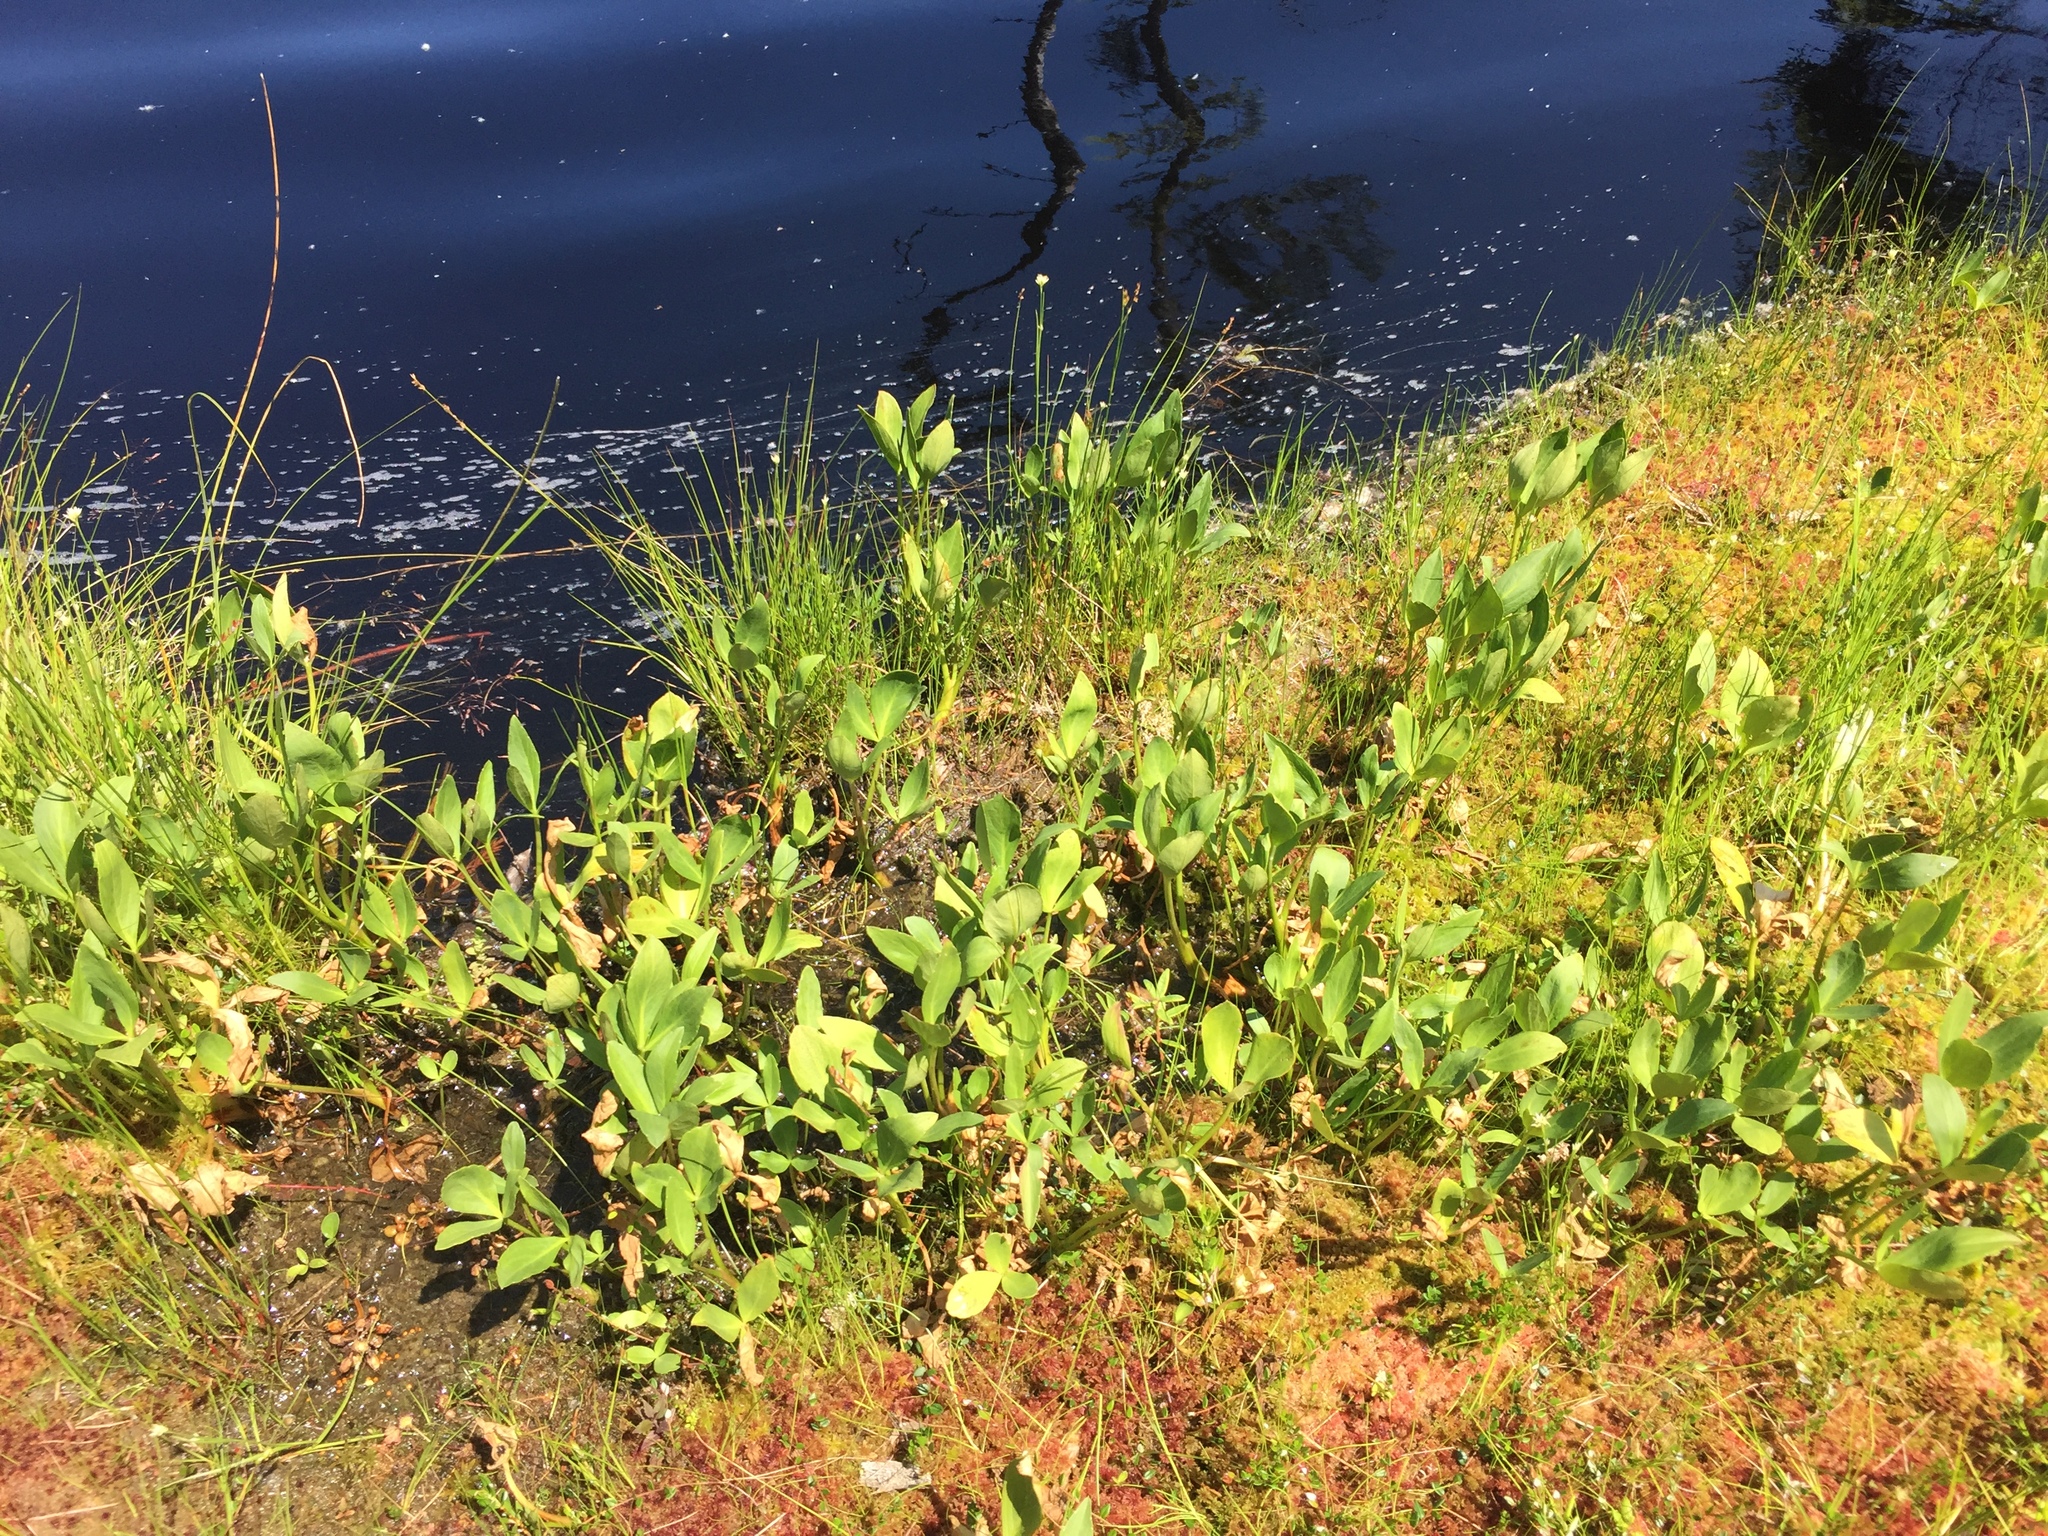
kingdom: Plantae
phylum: Tracheophyta
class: Magnoliopsida
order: Asterales
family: Menyanthaceae
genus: Menyanthes
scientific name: Menyanthes trifoliata
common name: Bogbean
